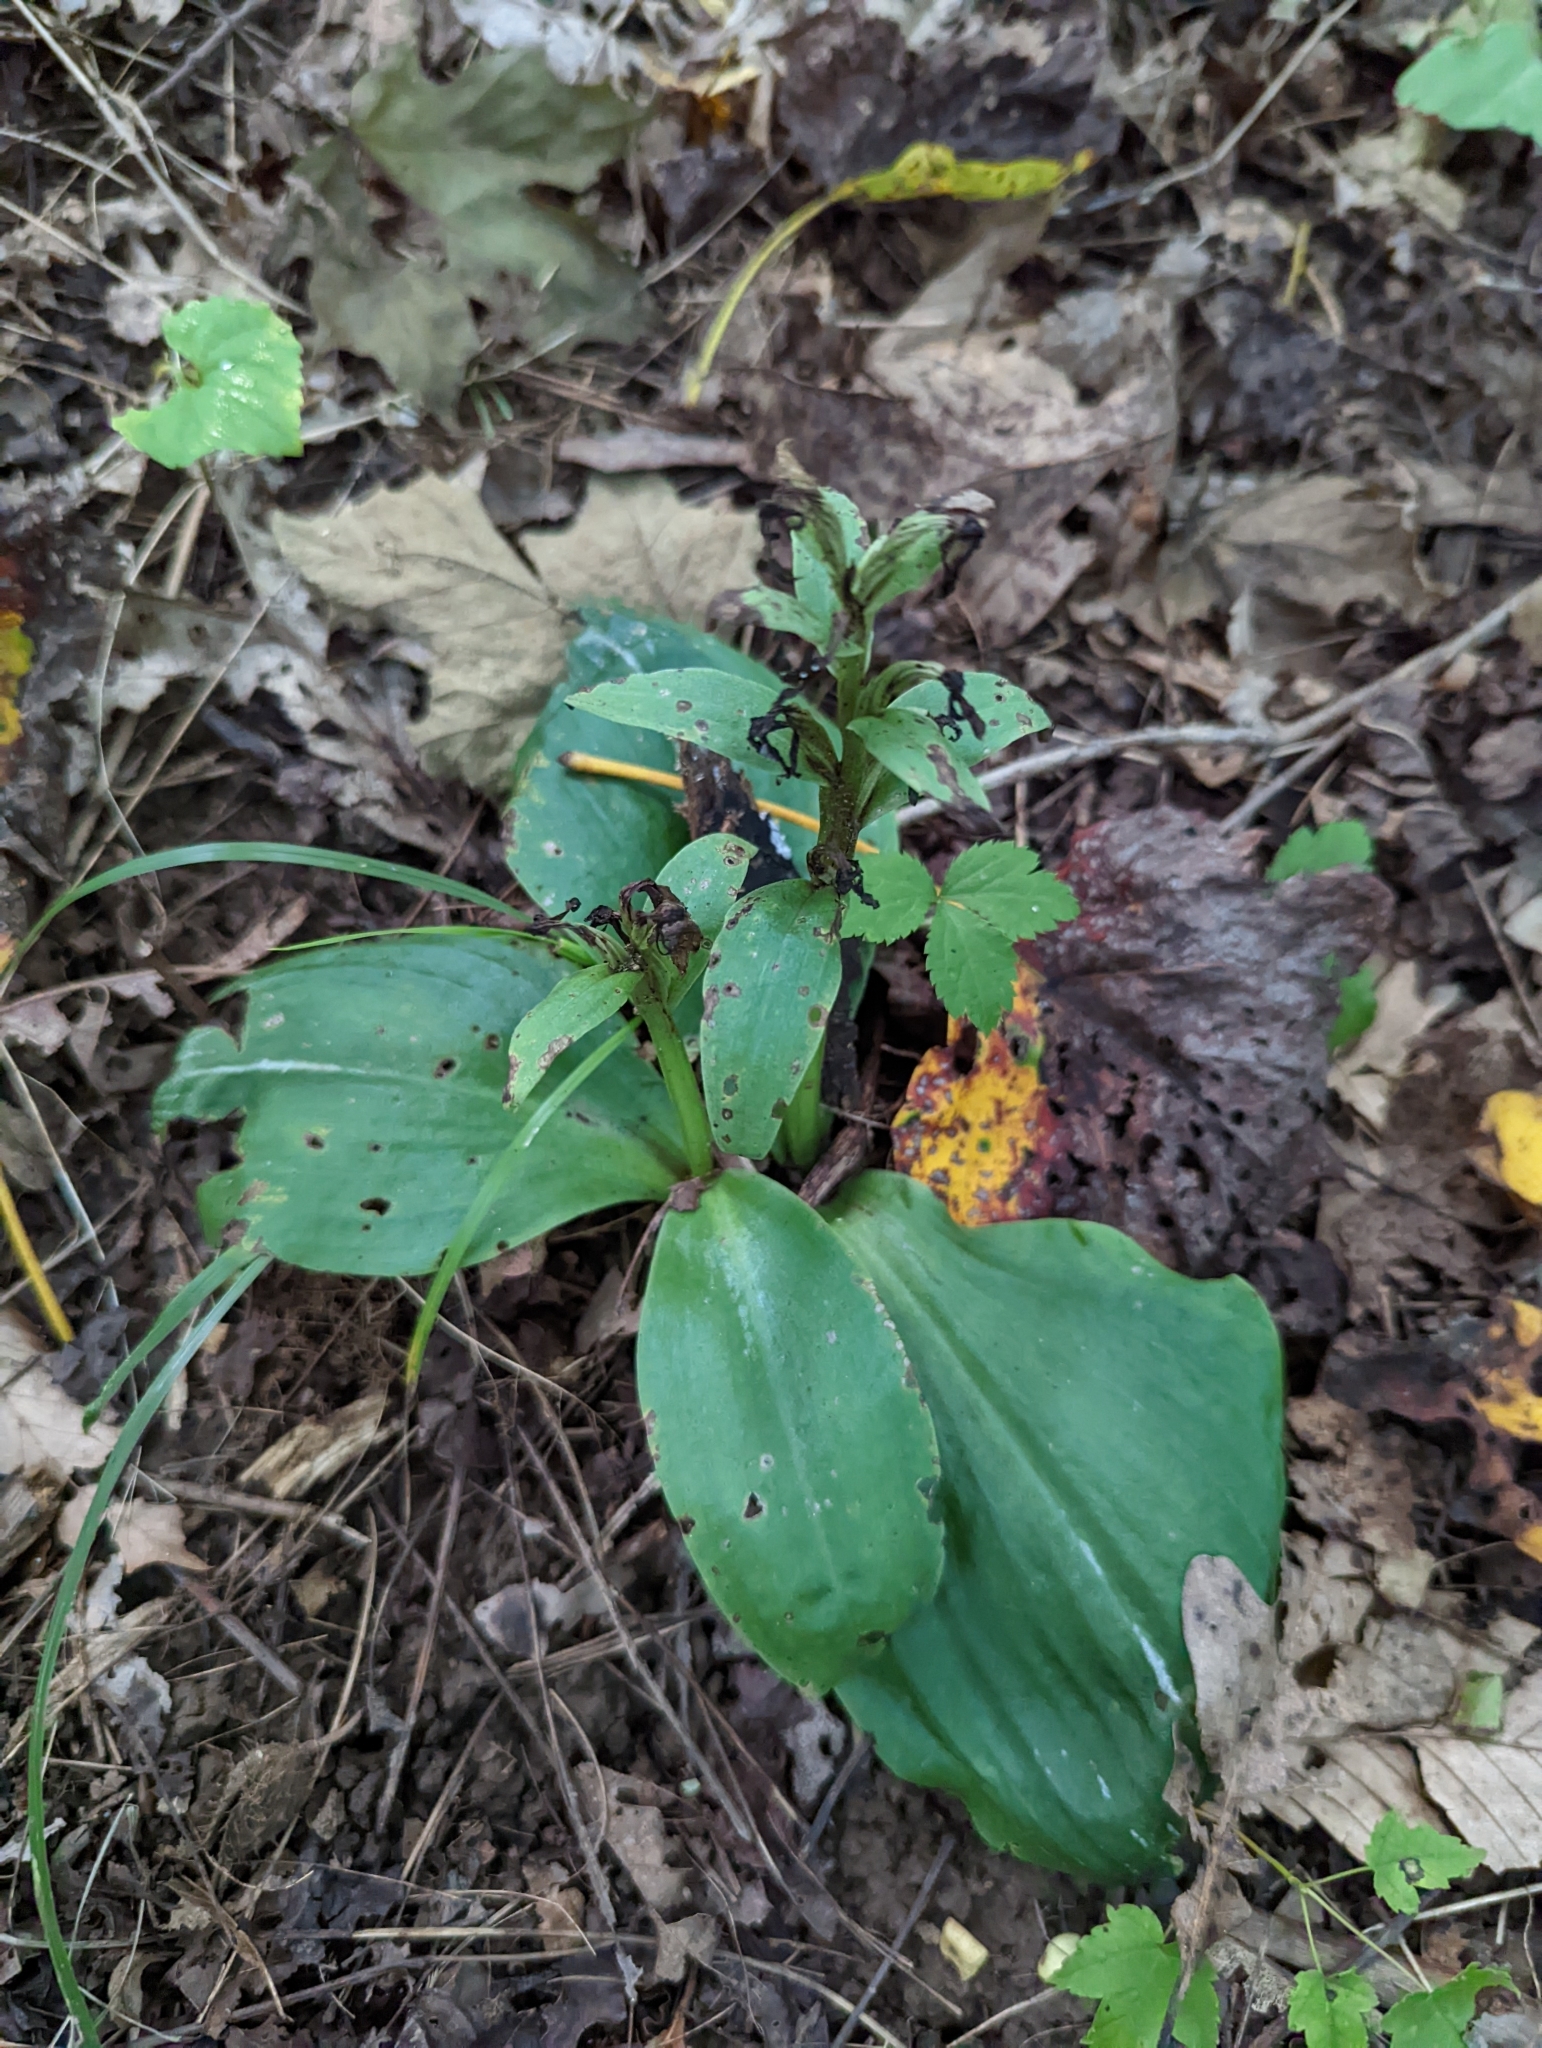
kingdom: Plantae
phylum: Tracheophyta
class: Liliopsida
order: Asparagales
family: Orchidaceae
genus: Galearis
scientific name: Galearis spectabilis
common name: Purple-hooded orchis
